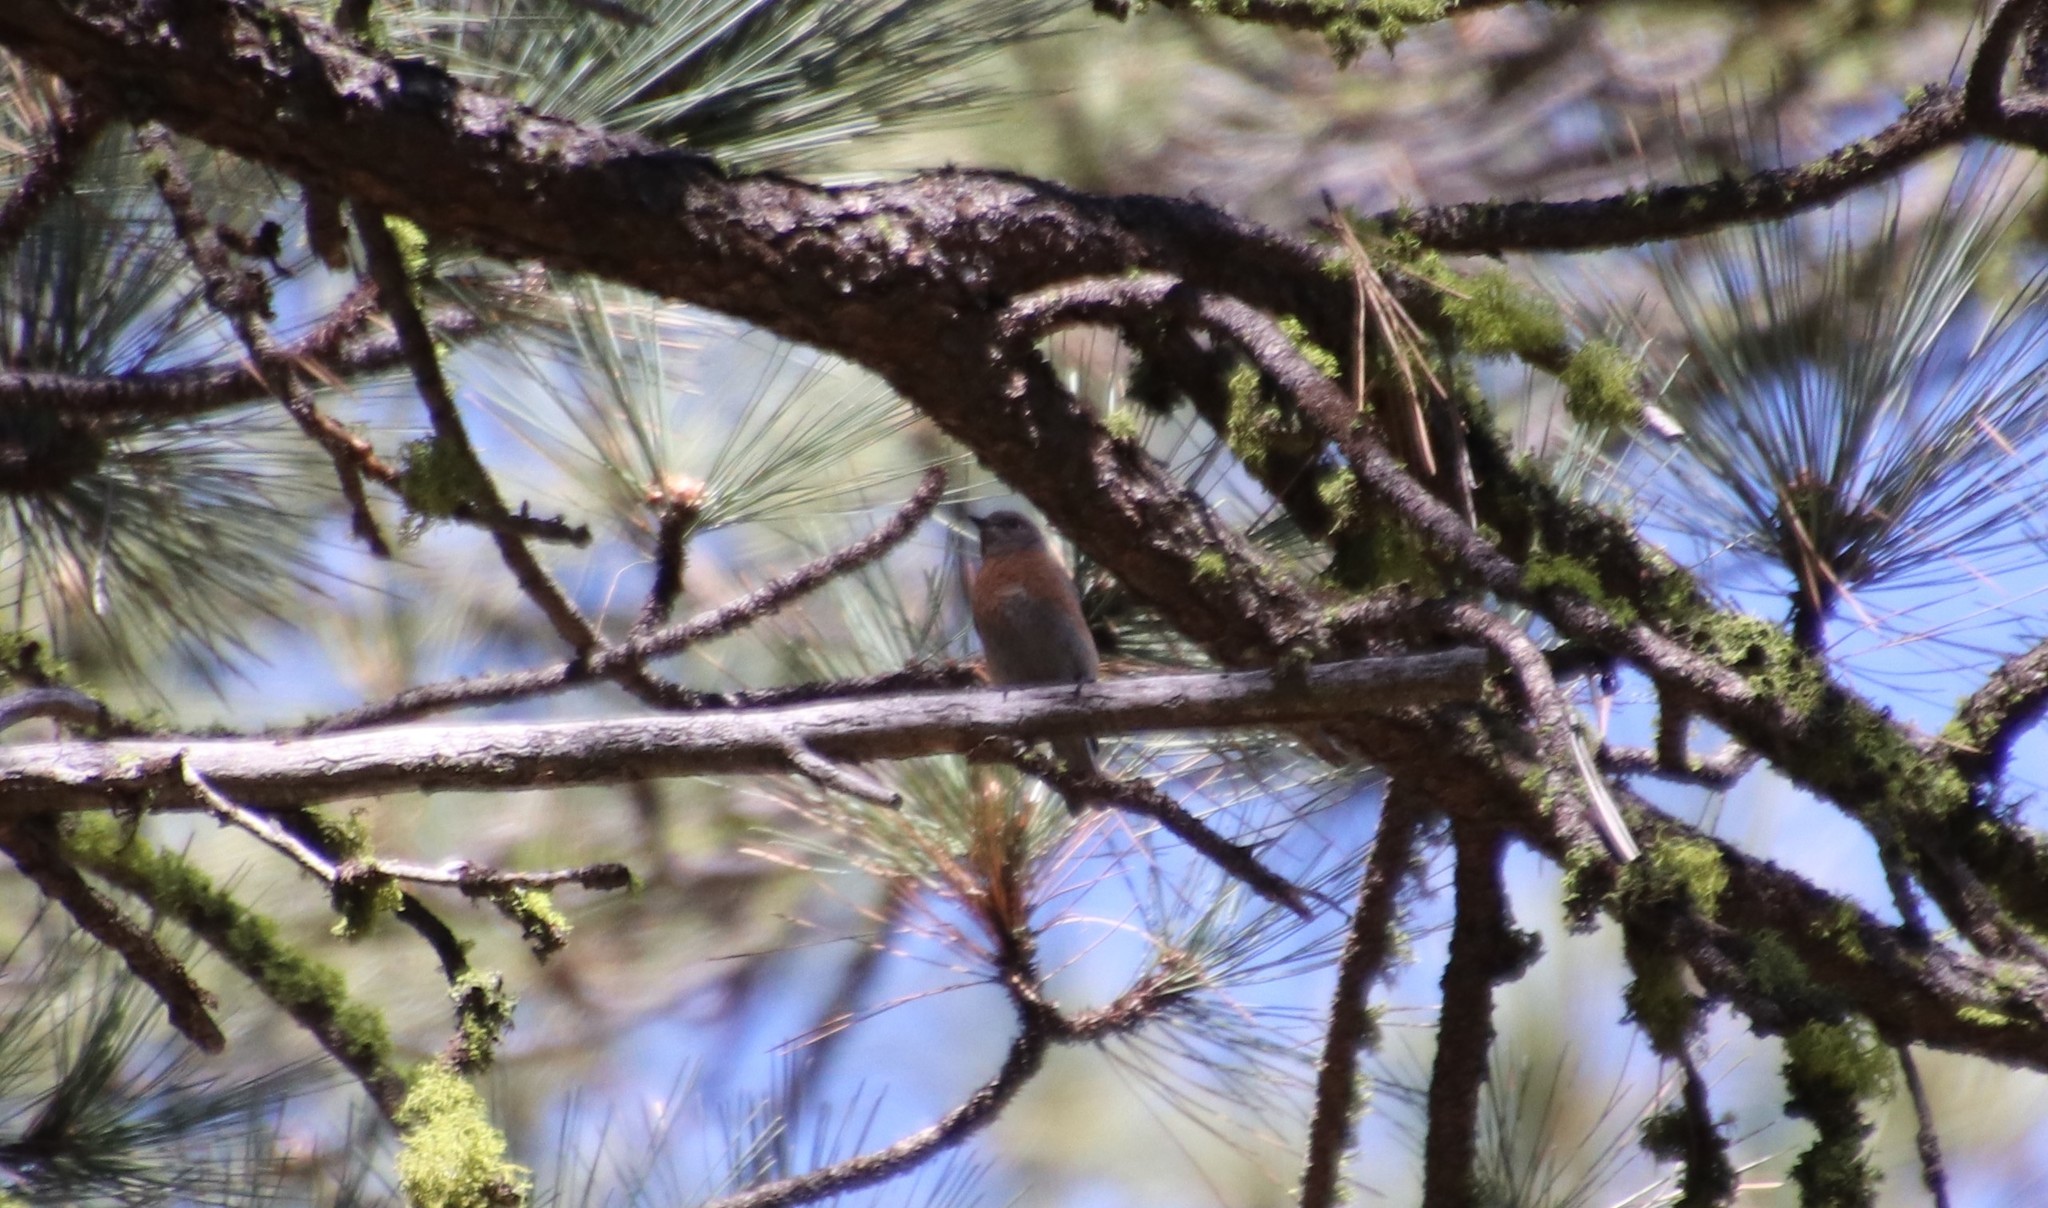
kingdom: Animalia
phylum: Chordata
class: Aves
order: Passeriformes
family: Turdidae
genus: Sialia
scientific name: Sialia mexicana
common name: Western bluebird
